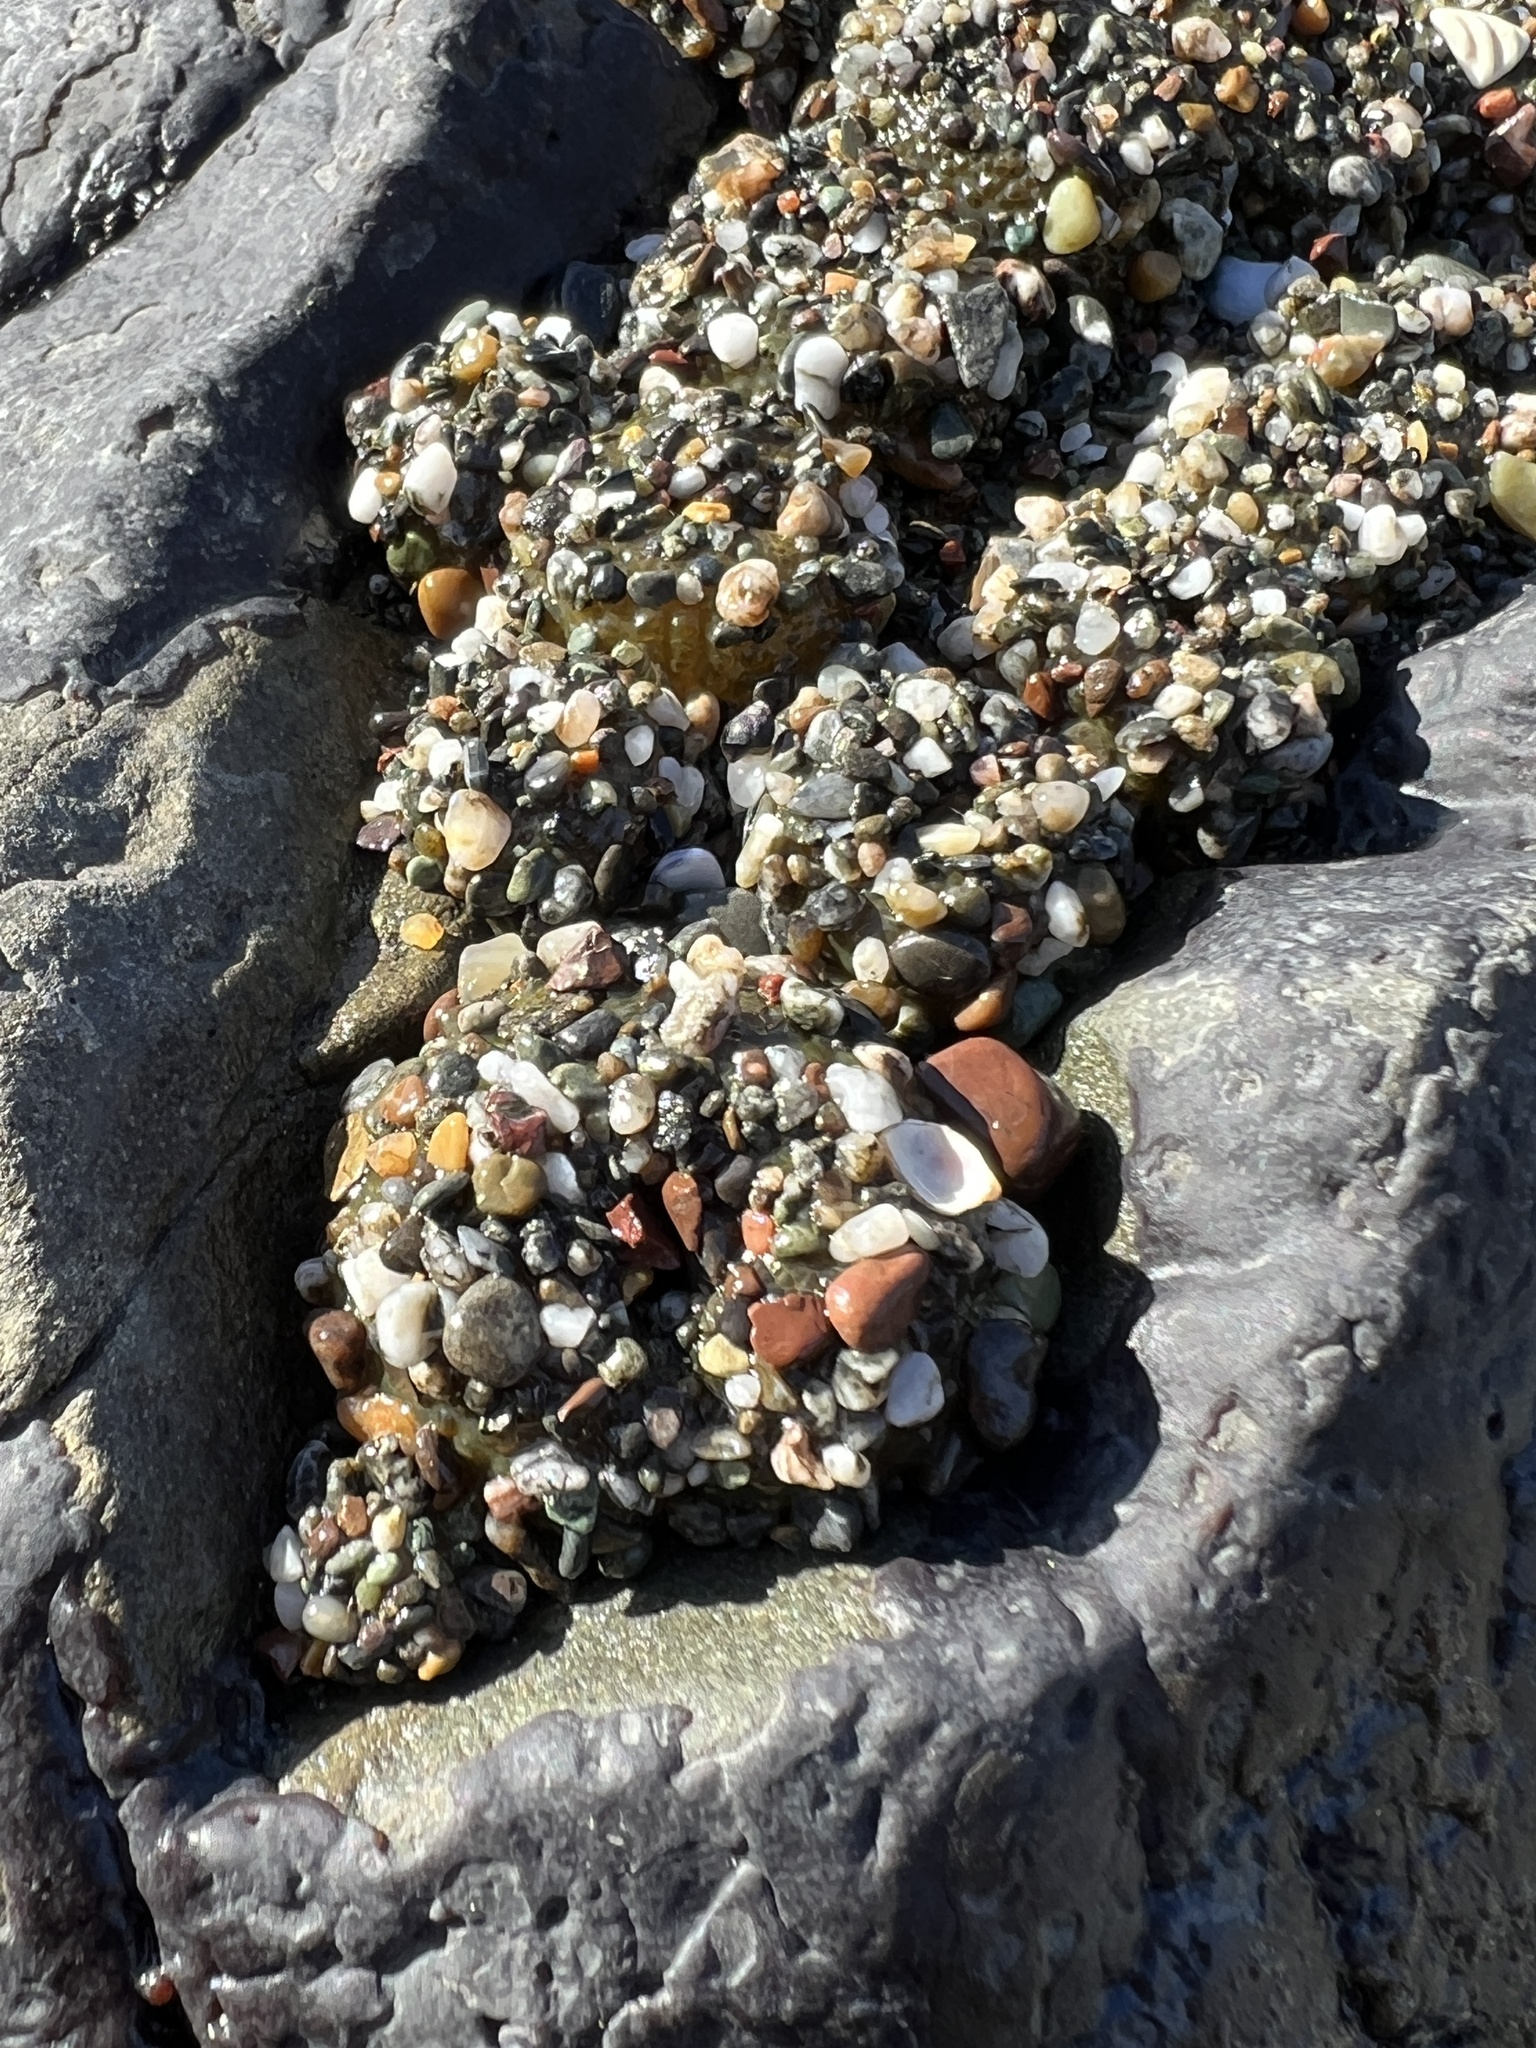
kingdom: Animalia
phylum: Cnidaria
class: Anthozoa
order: Actiniaria
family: Actiniidae
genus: Anthopleura
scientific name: Anthopleura elegantissima
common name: Clonal anemone
